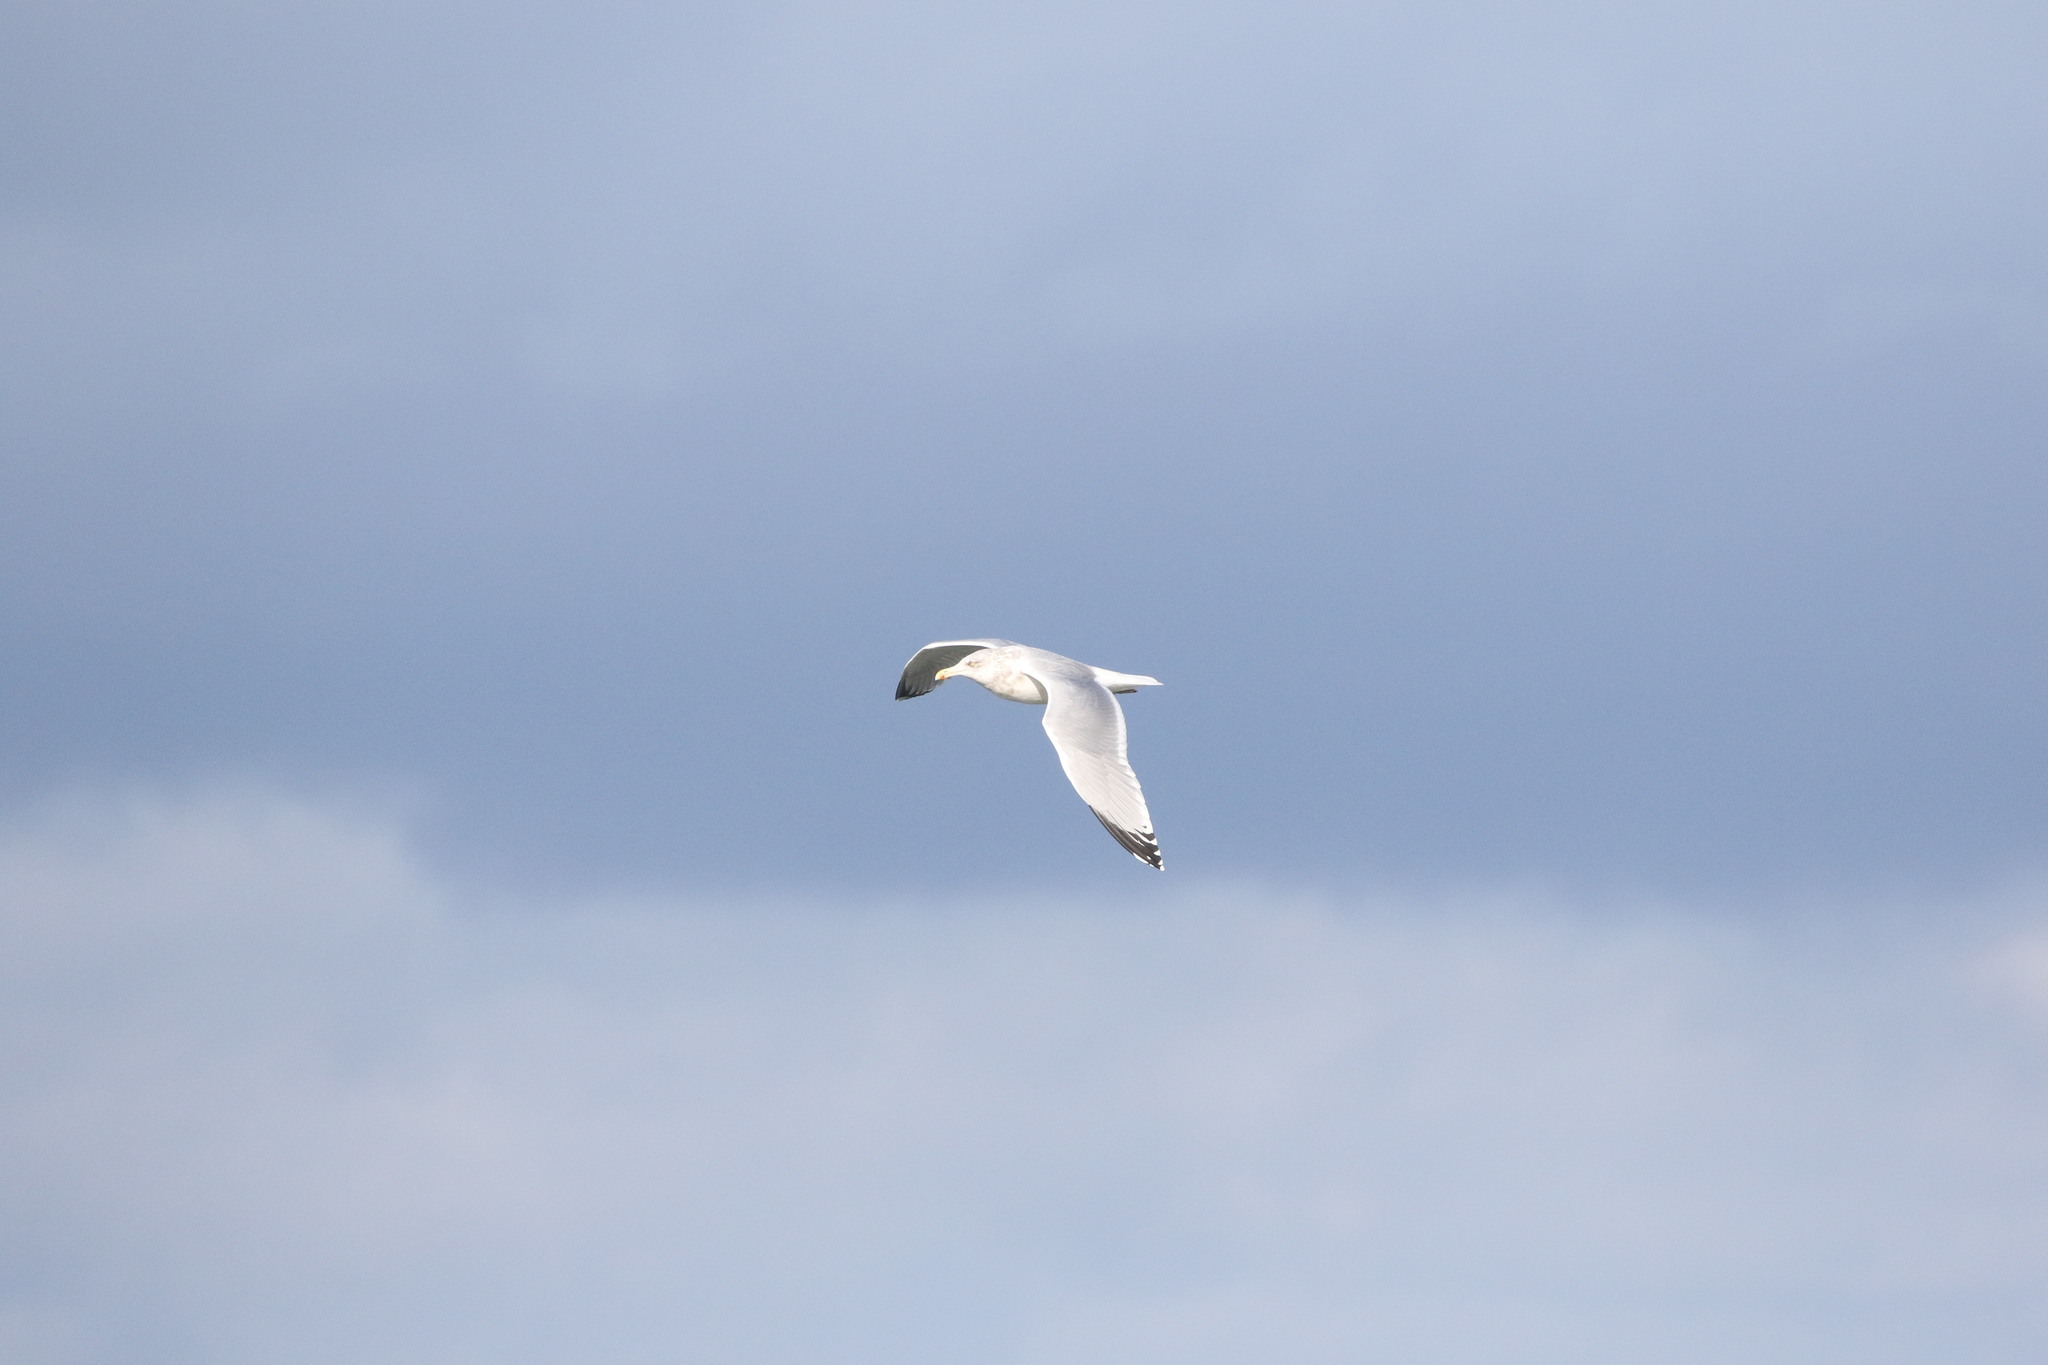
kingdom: Animalia
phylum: Chordata
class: Aves
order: Charadriiformes
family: Laridae
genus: Larus
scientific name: Larus argentatus
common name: Herring gull
